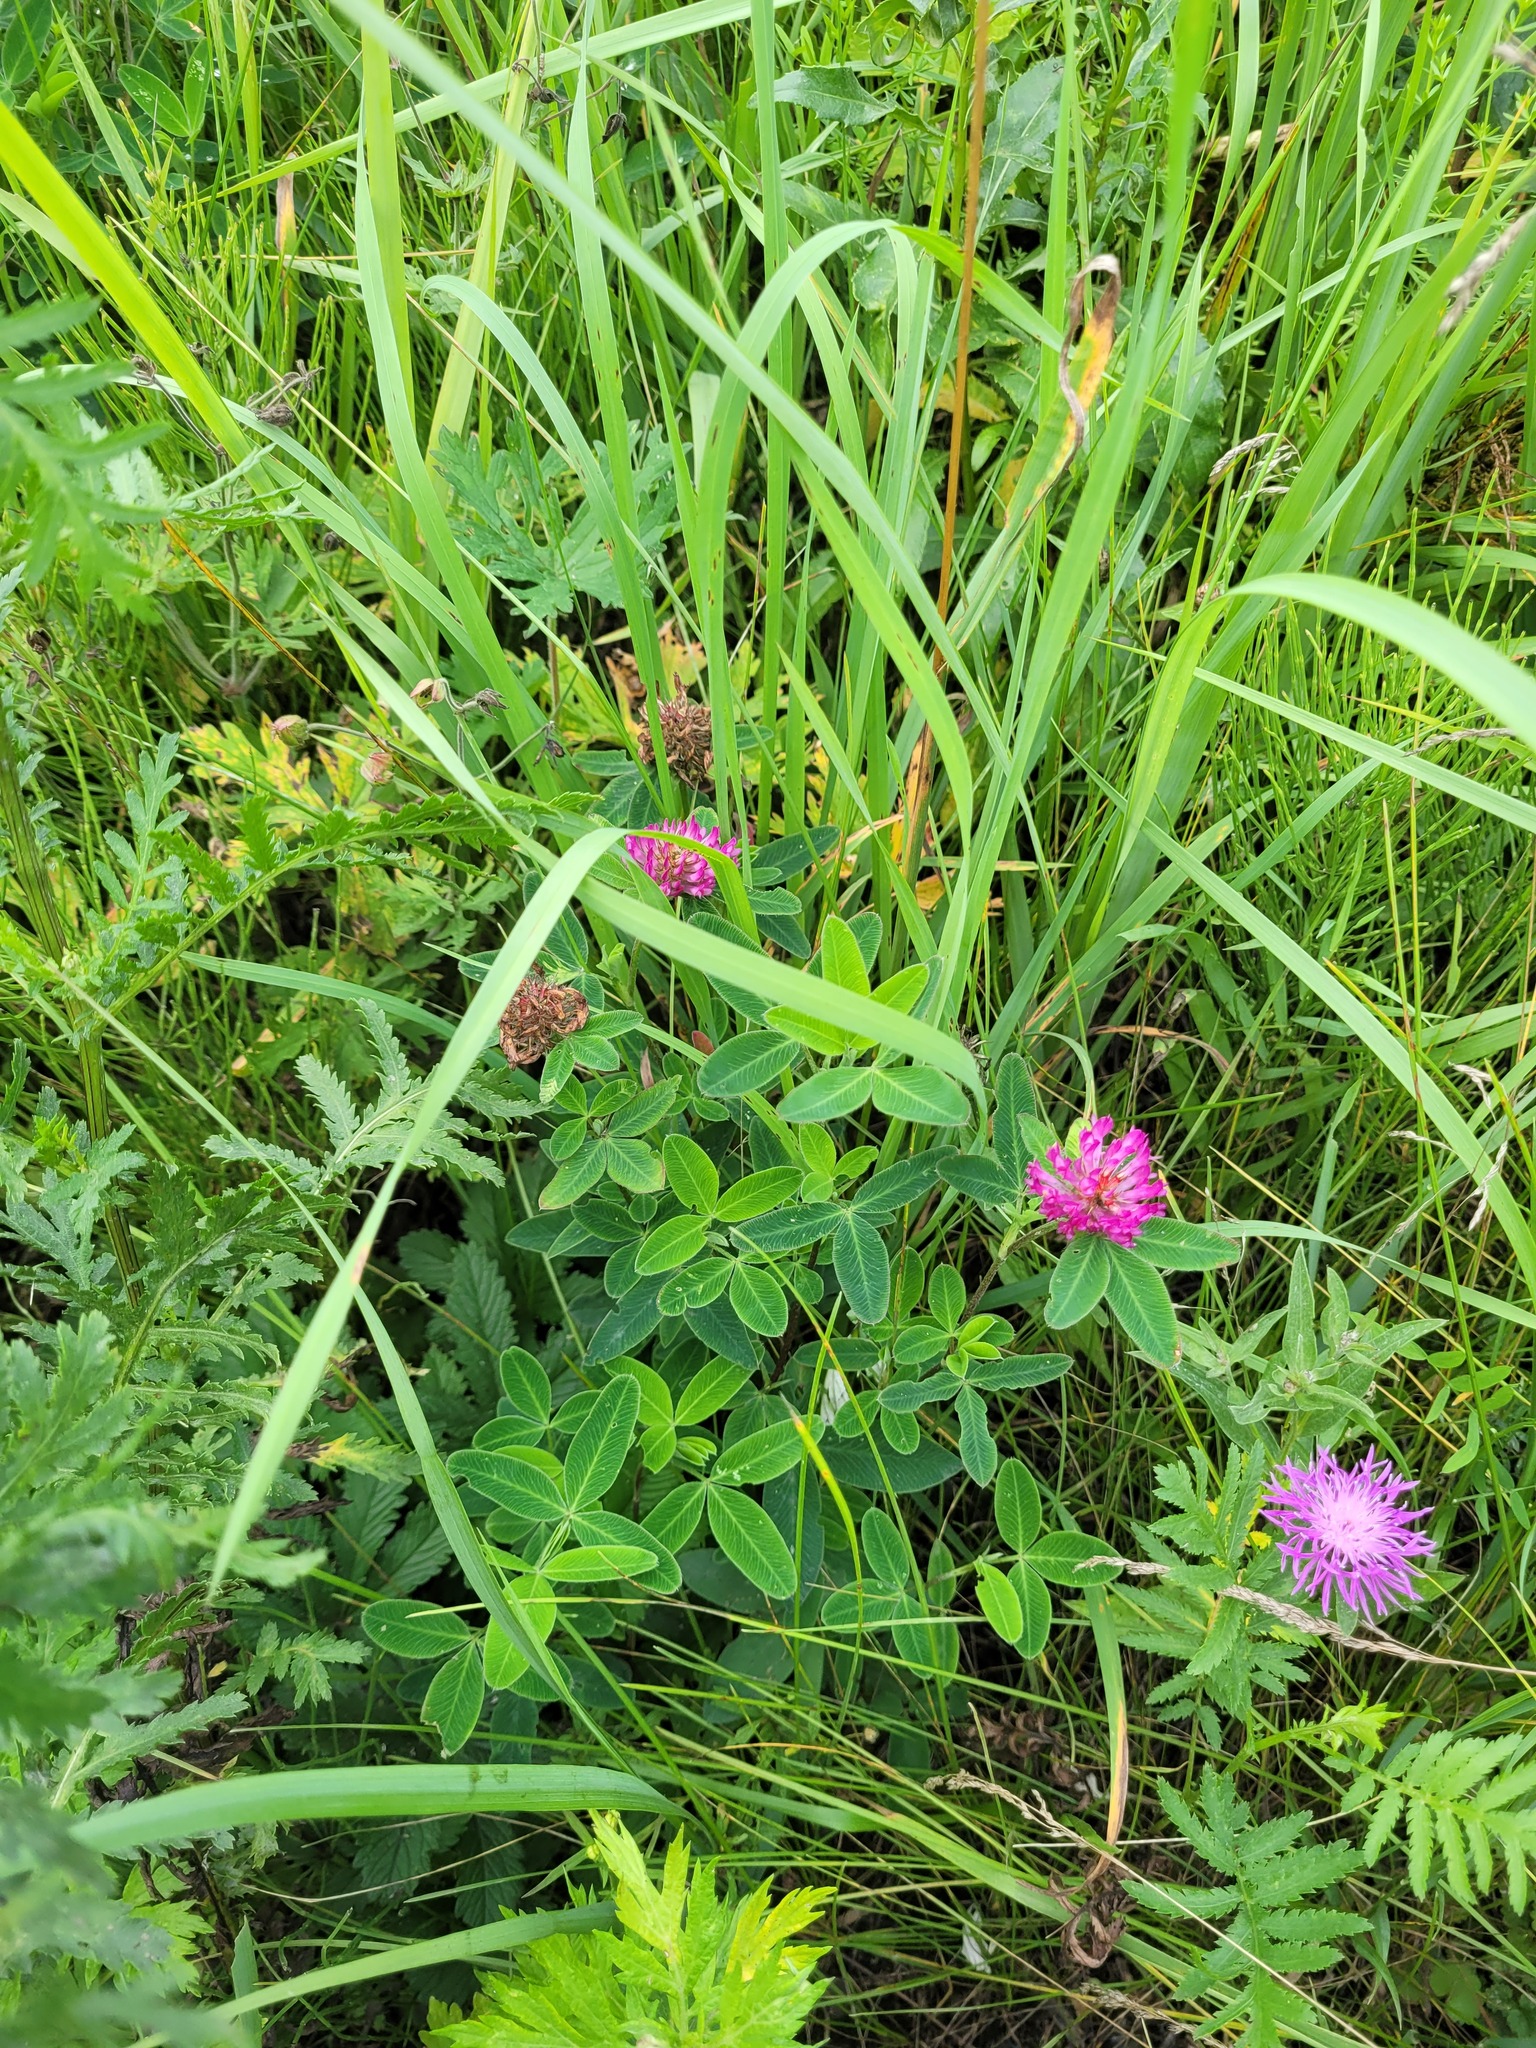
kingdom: Plantae
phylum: Tracheophyta
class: Magnoliopsida
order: Fabales
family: Fabaceae
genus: Trifolium
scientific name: Trifolium medium
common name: Zigzag clover
